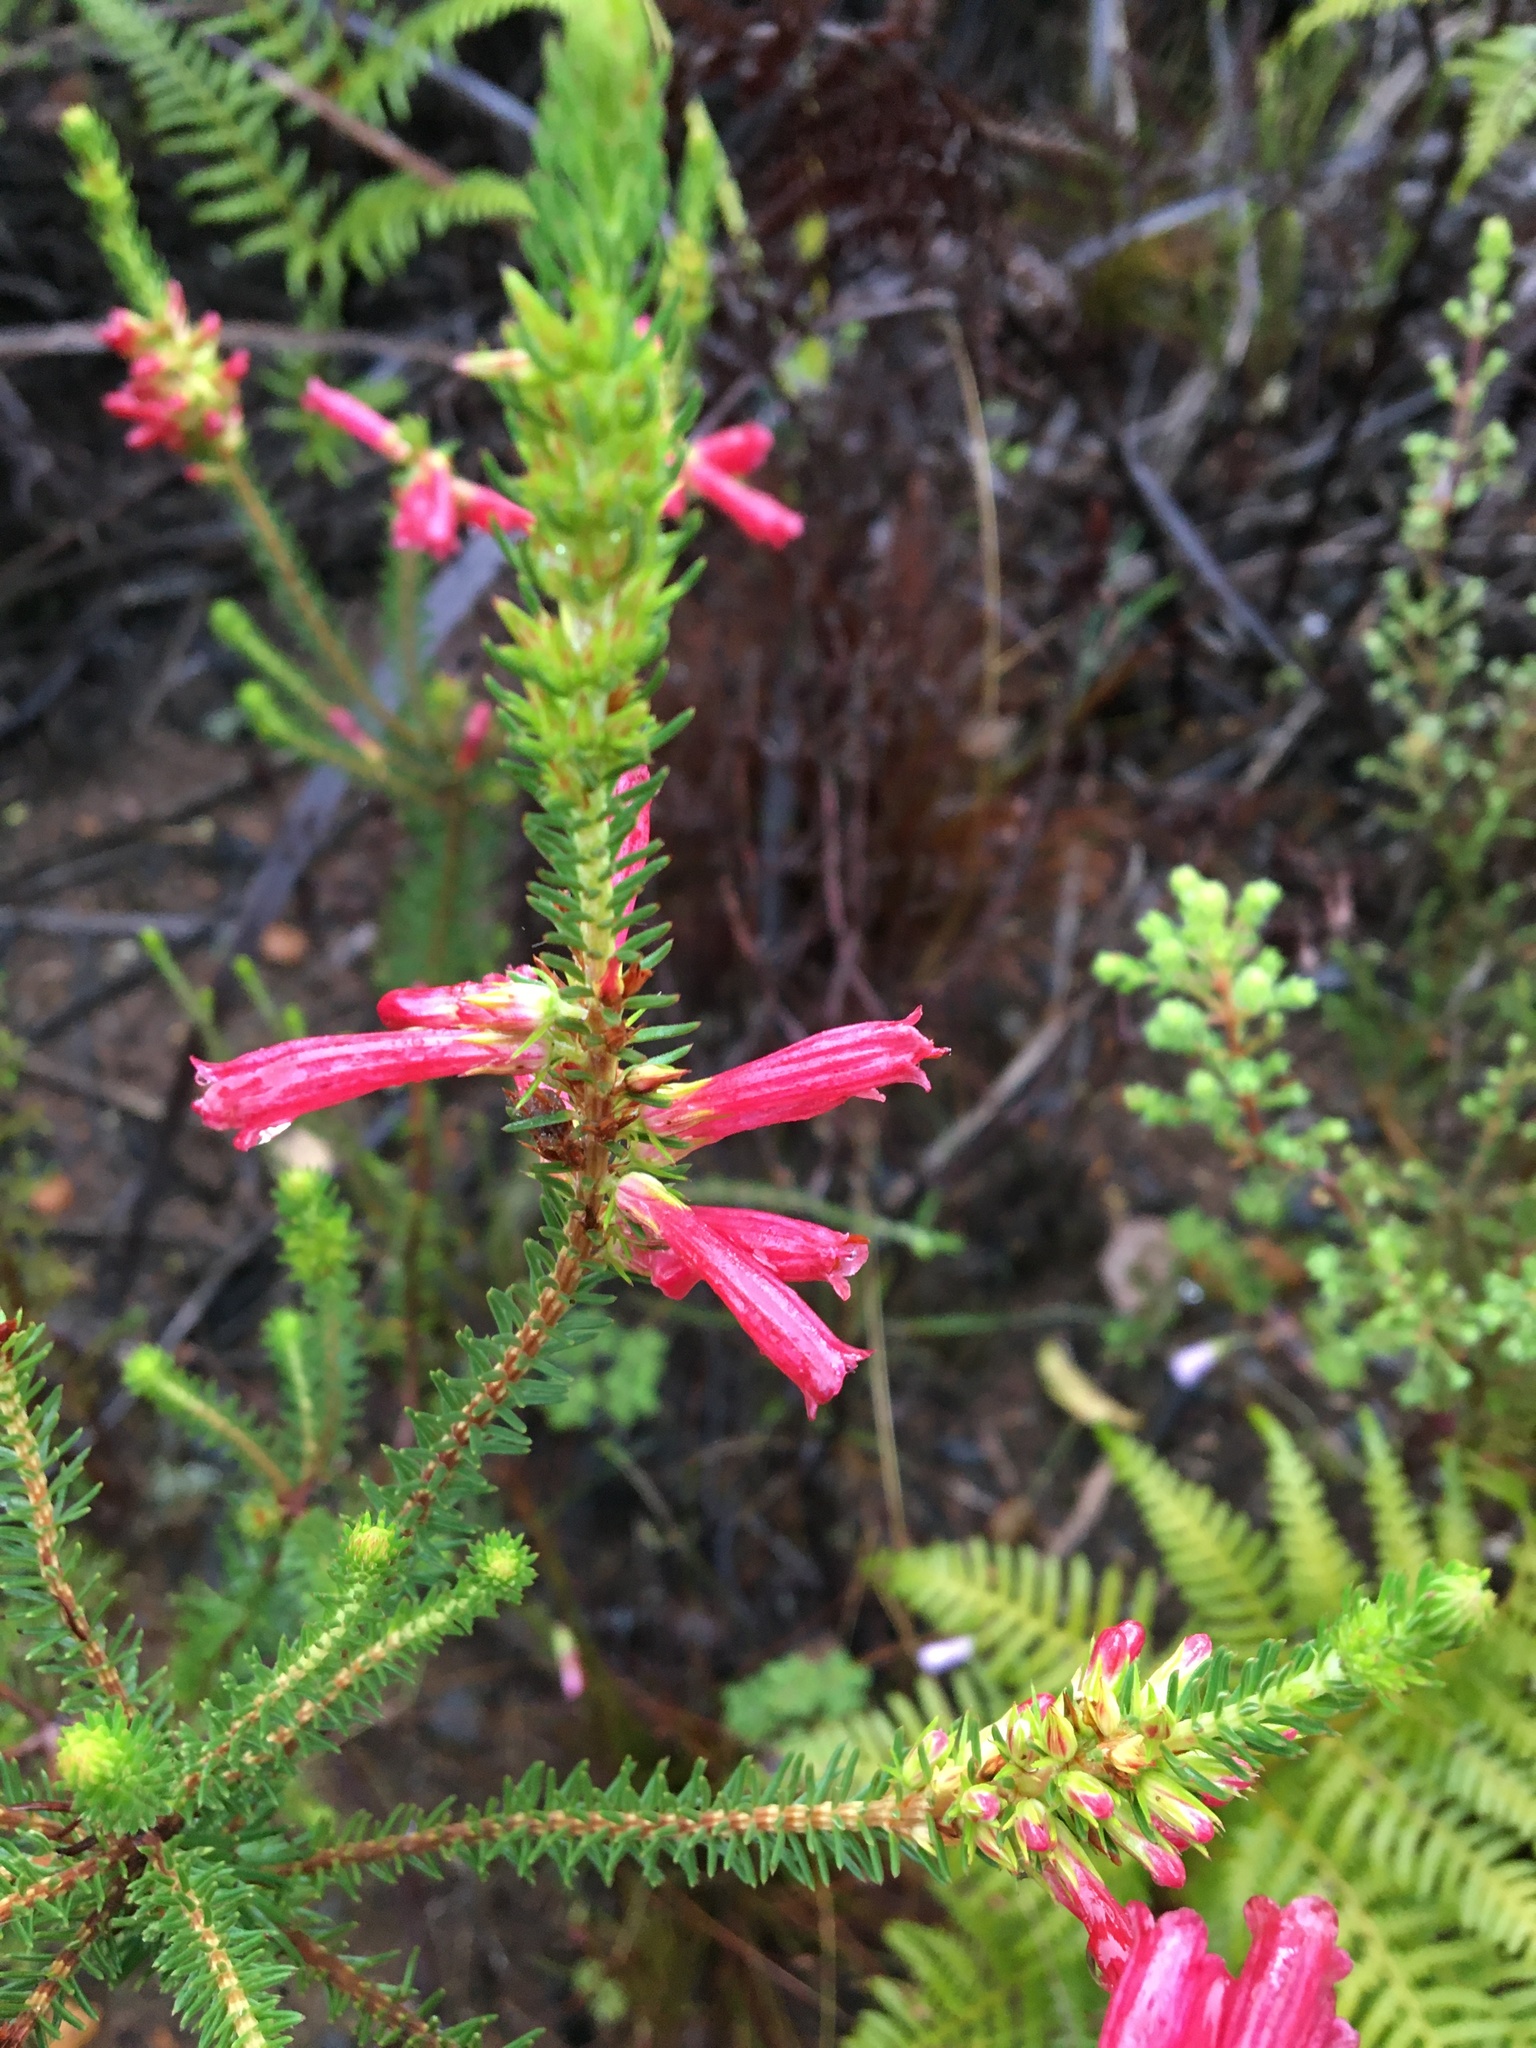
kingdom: Plantae
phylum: Tracheophyta
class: Magnoliopsida
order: Ericales
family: Ericaceae
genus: Erica
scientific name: Erica abietina
